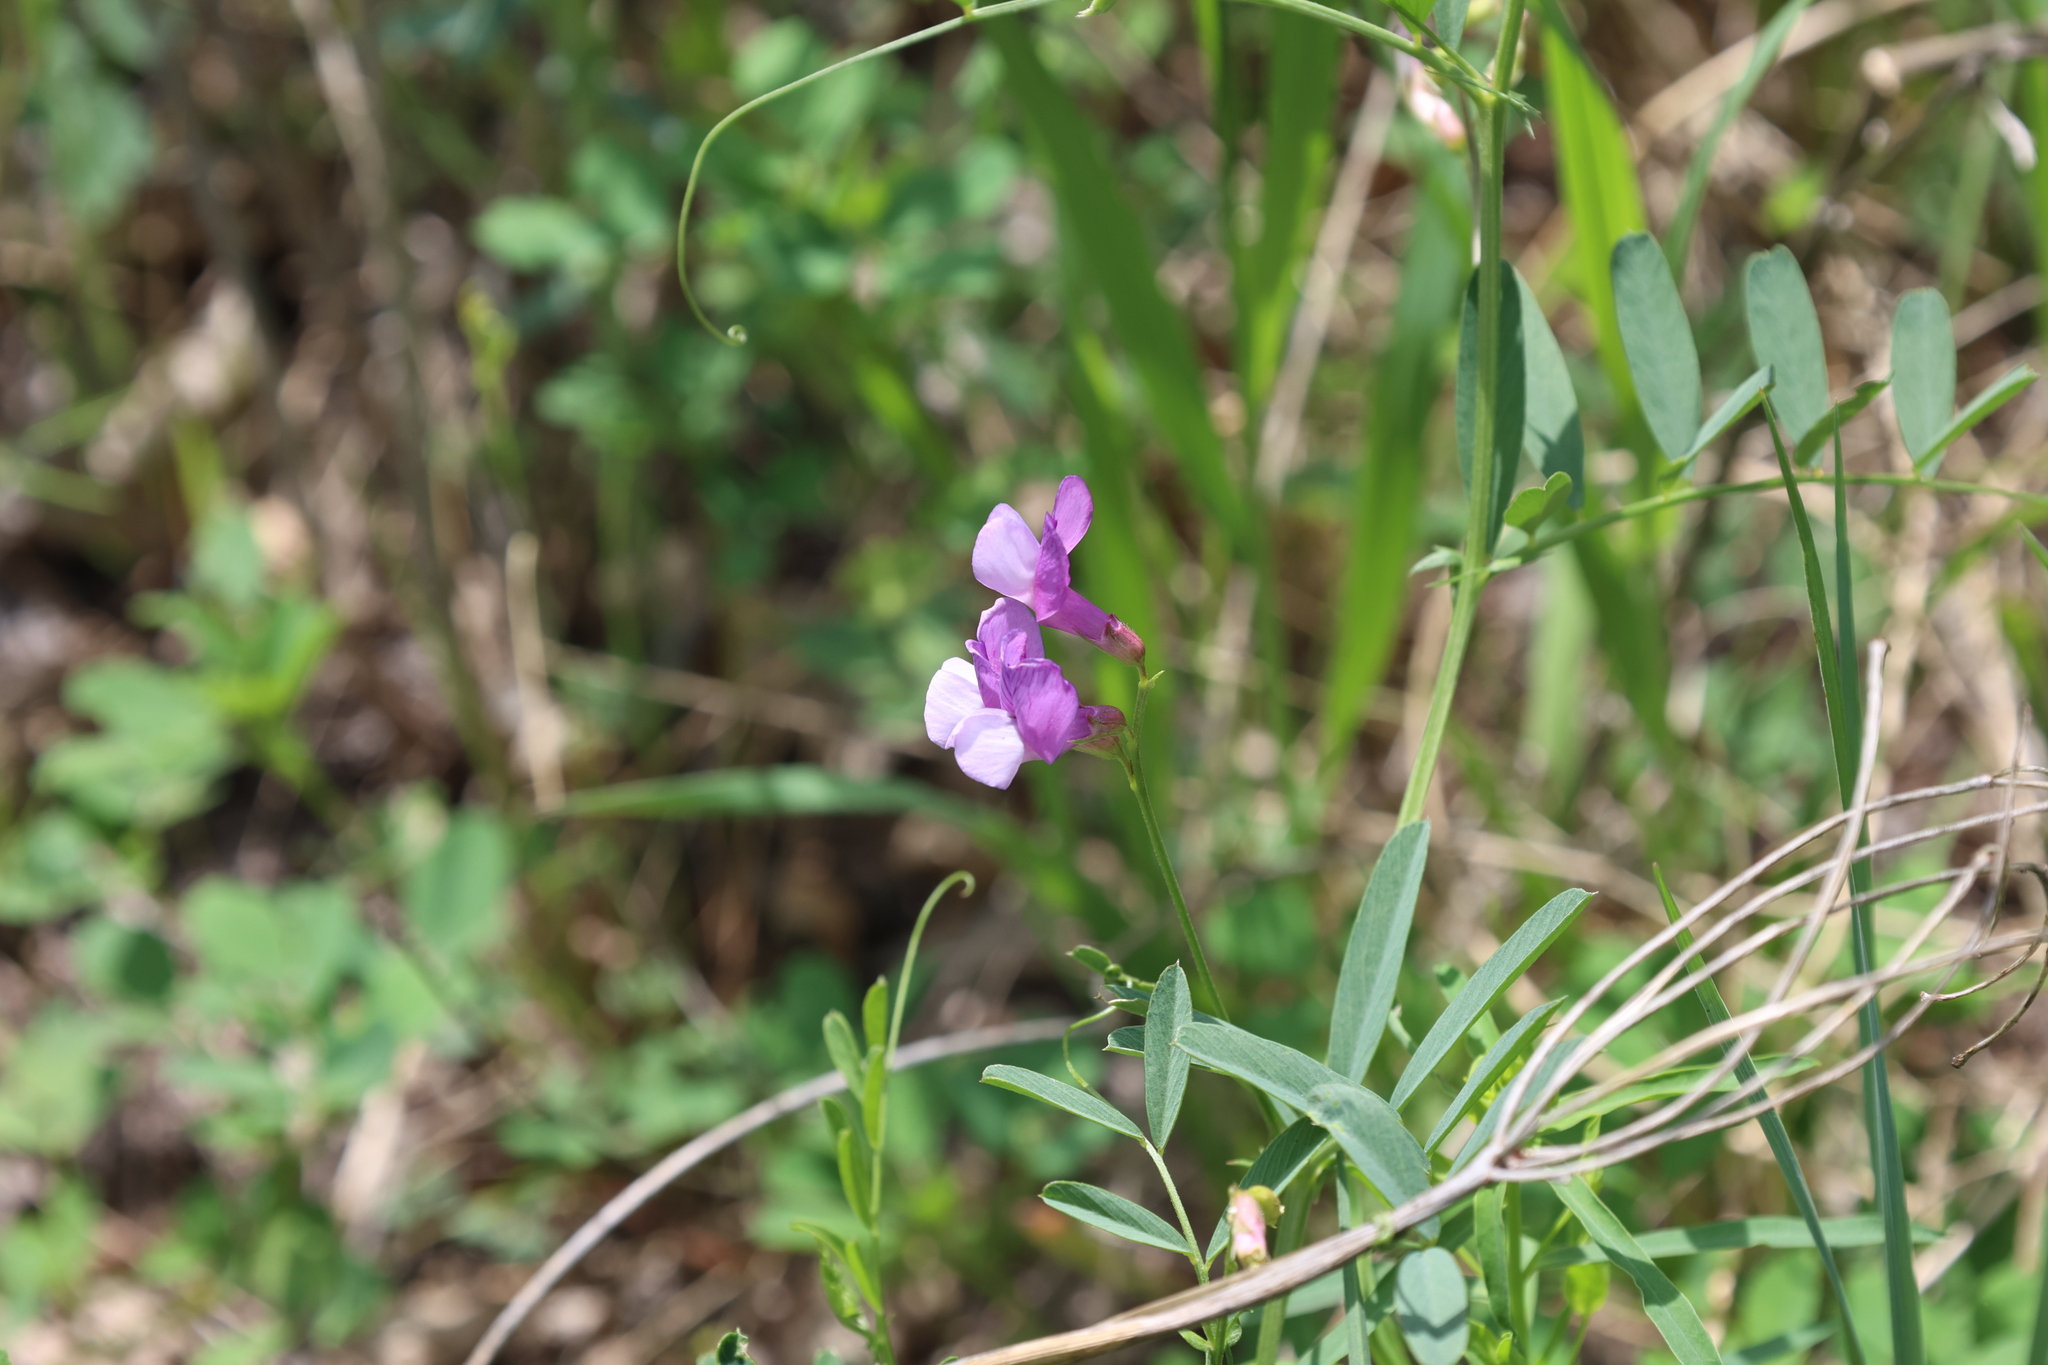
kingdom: Plantae
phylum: Tracheophyta
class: Magnoliopsida
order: Fabales
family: Fabaceae
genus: Vicia
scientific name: Vicia americana
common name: American vetch
